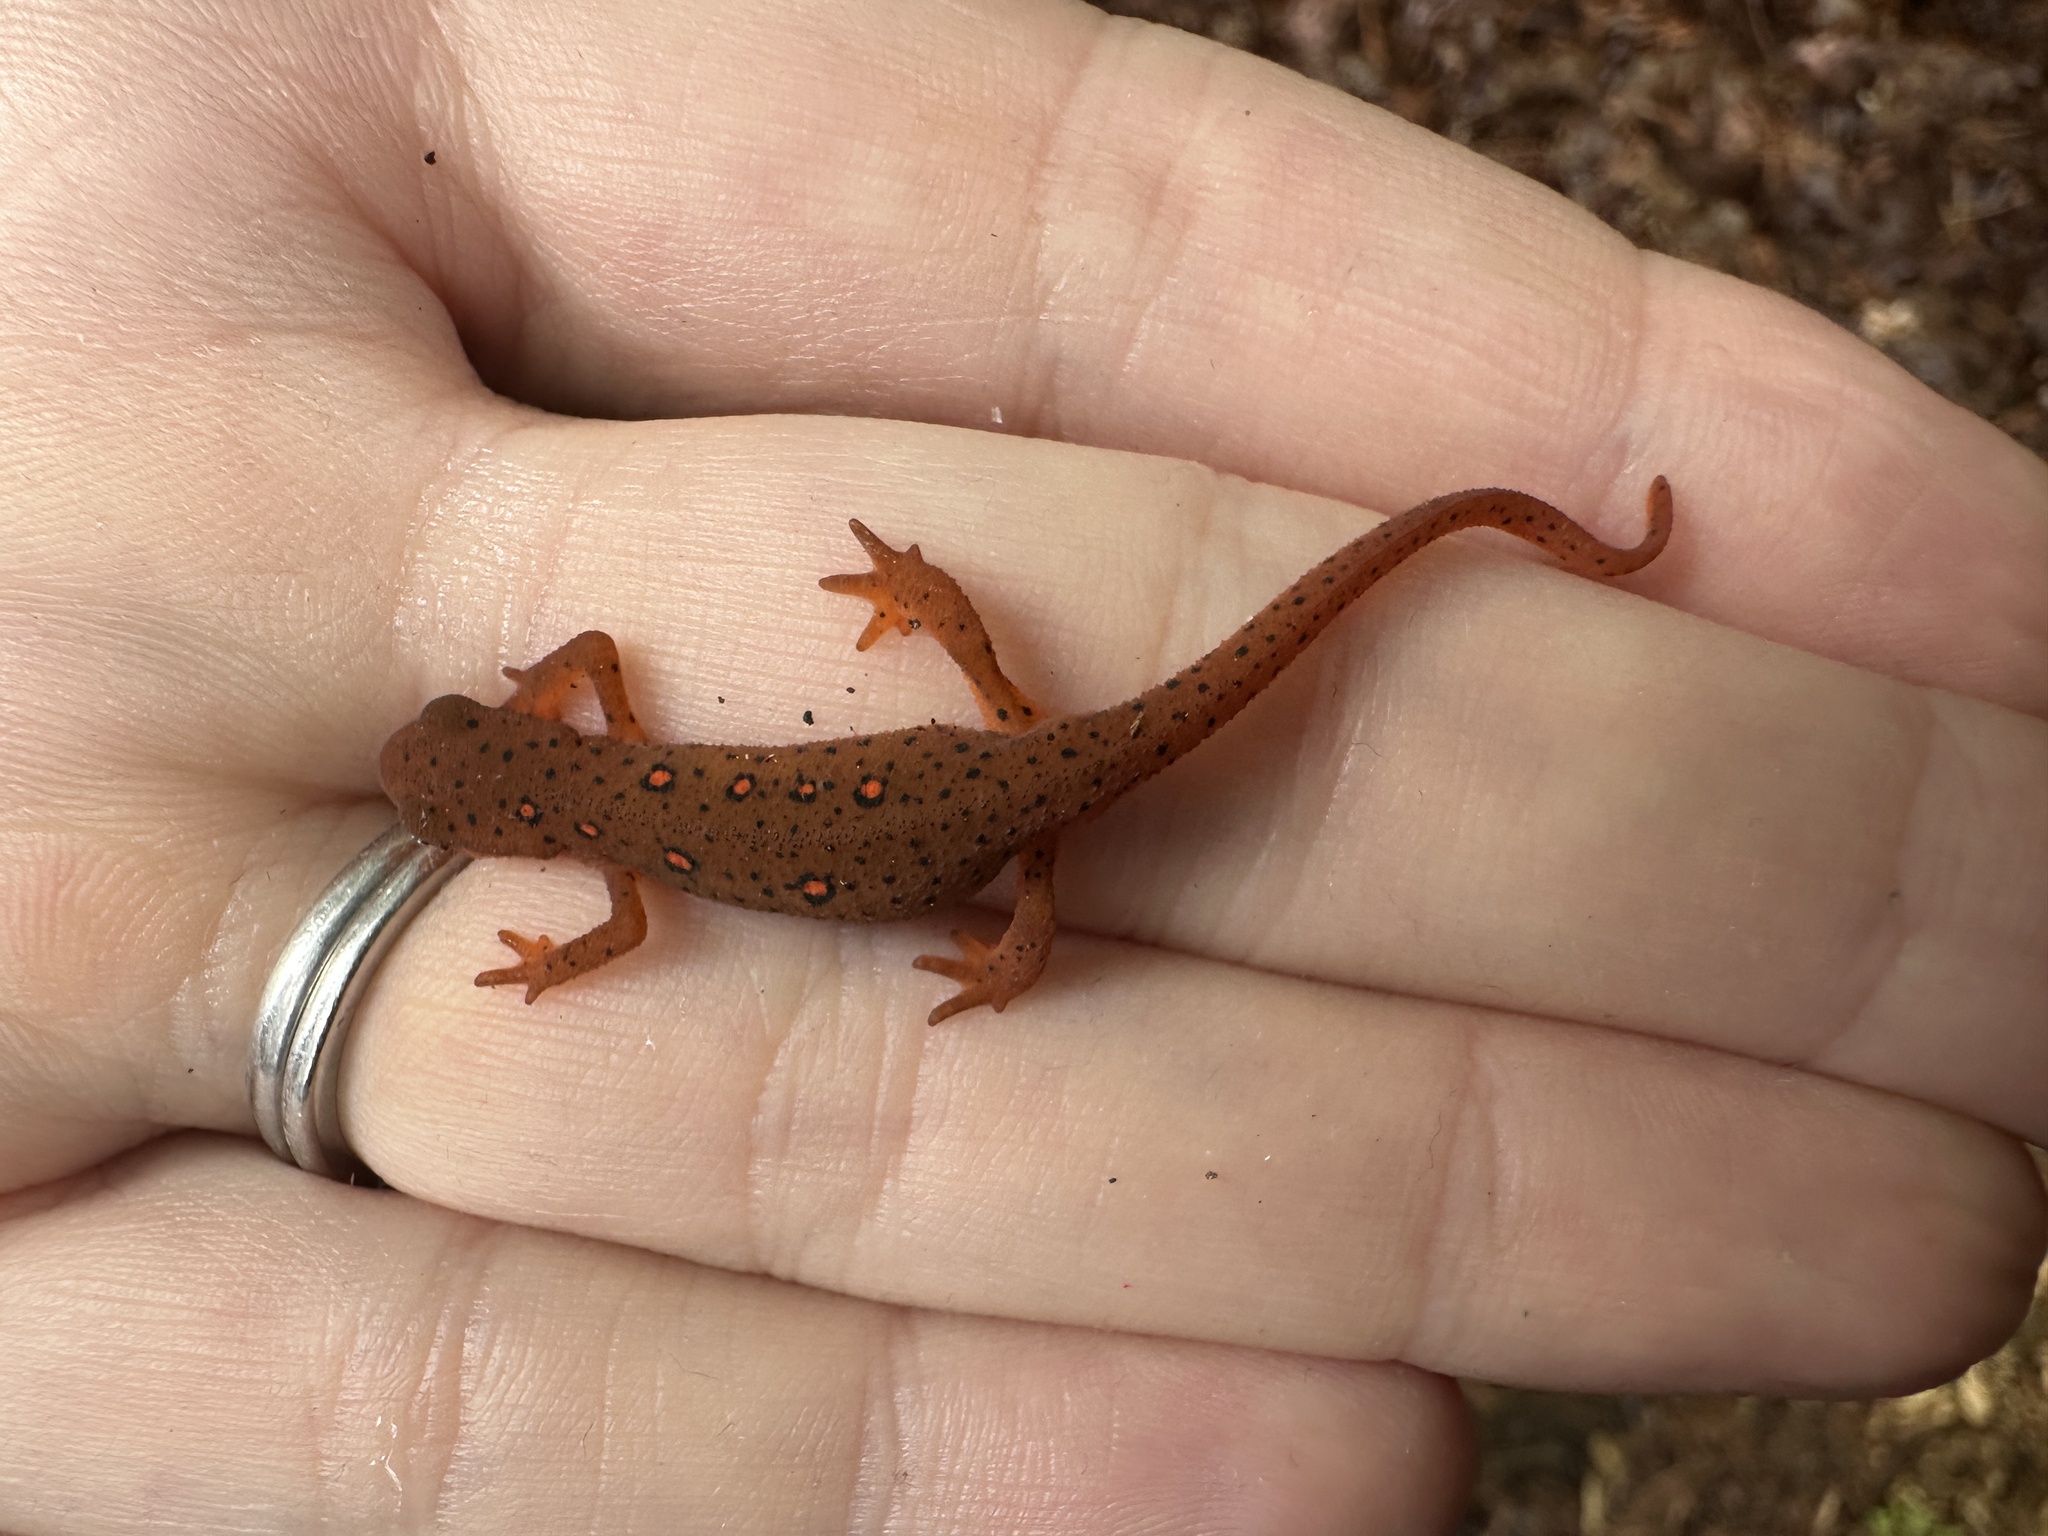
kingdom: Animalia
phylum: Chordata
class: Amphibia
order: Caudata
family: Salamandridae
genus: Notophthalmus
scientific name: Notophthalmus viridescens
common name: Eastern newt
